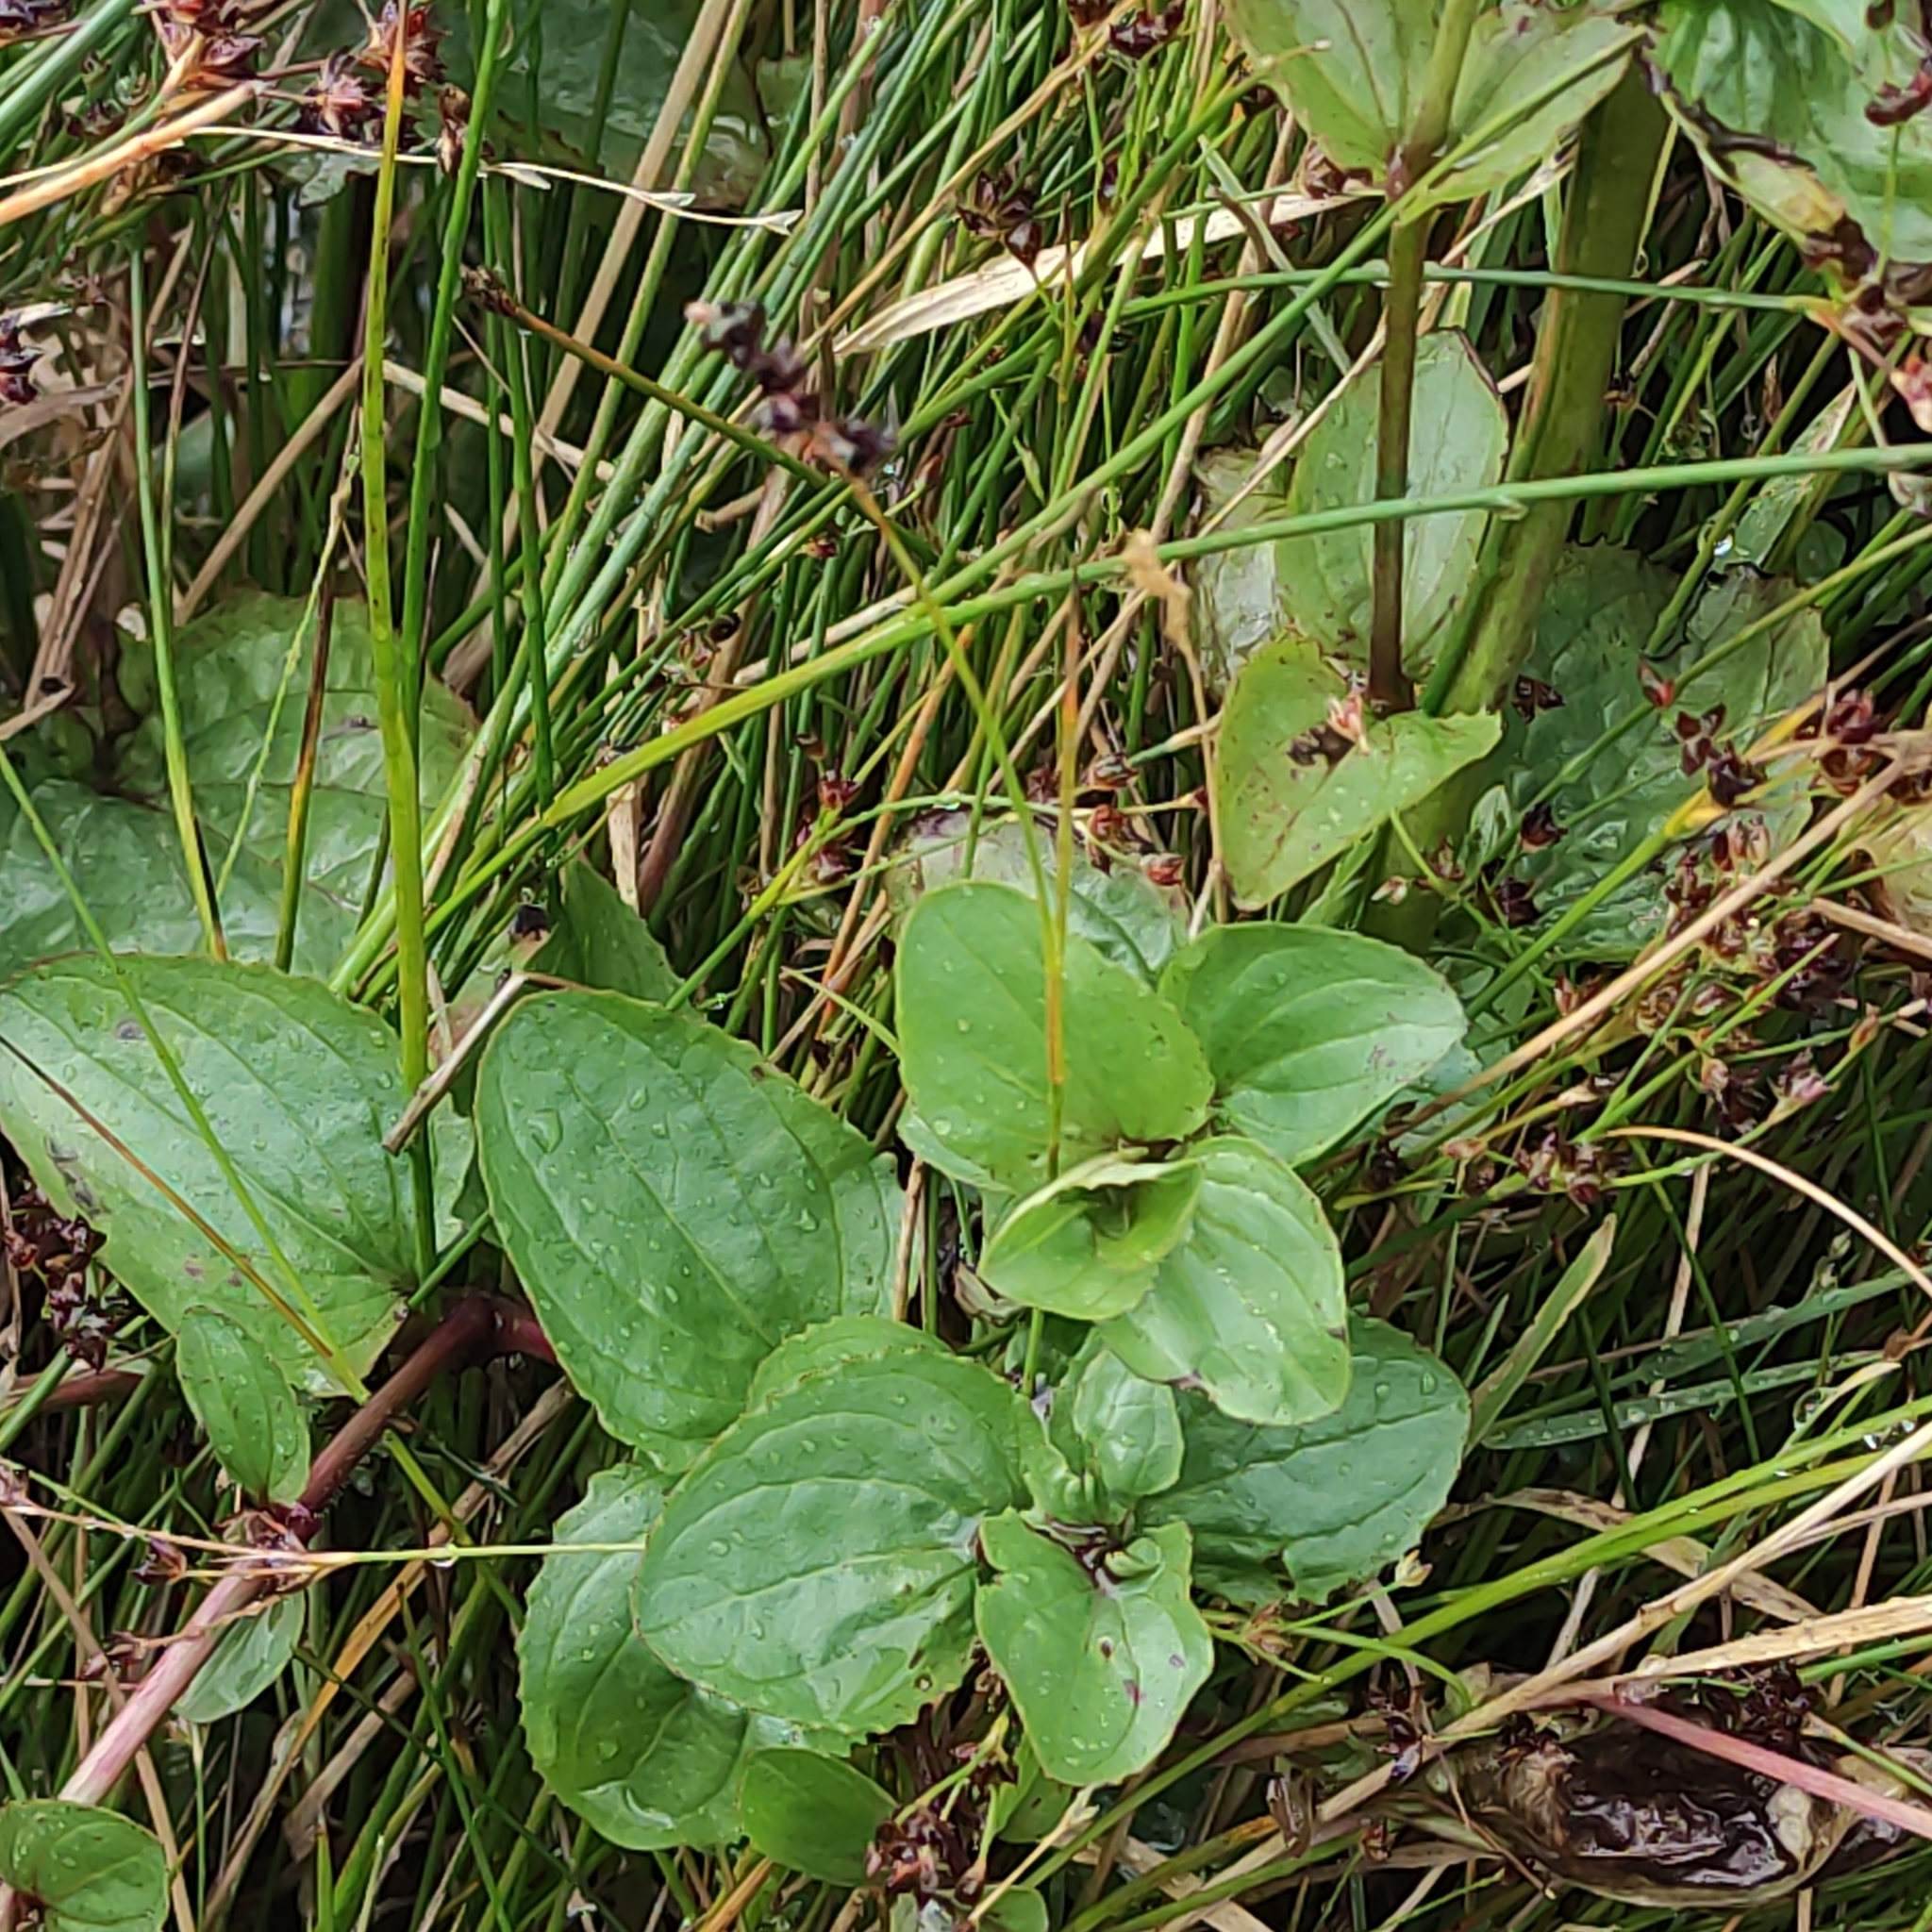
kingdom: Plantae
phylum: Tracheophyta
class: Magnoliopsida
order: Lamiales
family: Phrymaceae
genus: Erythranthe
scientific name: Erythranthe guttata
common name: Monkeyflower
